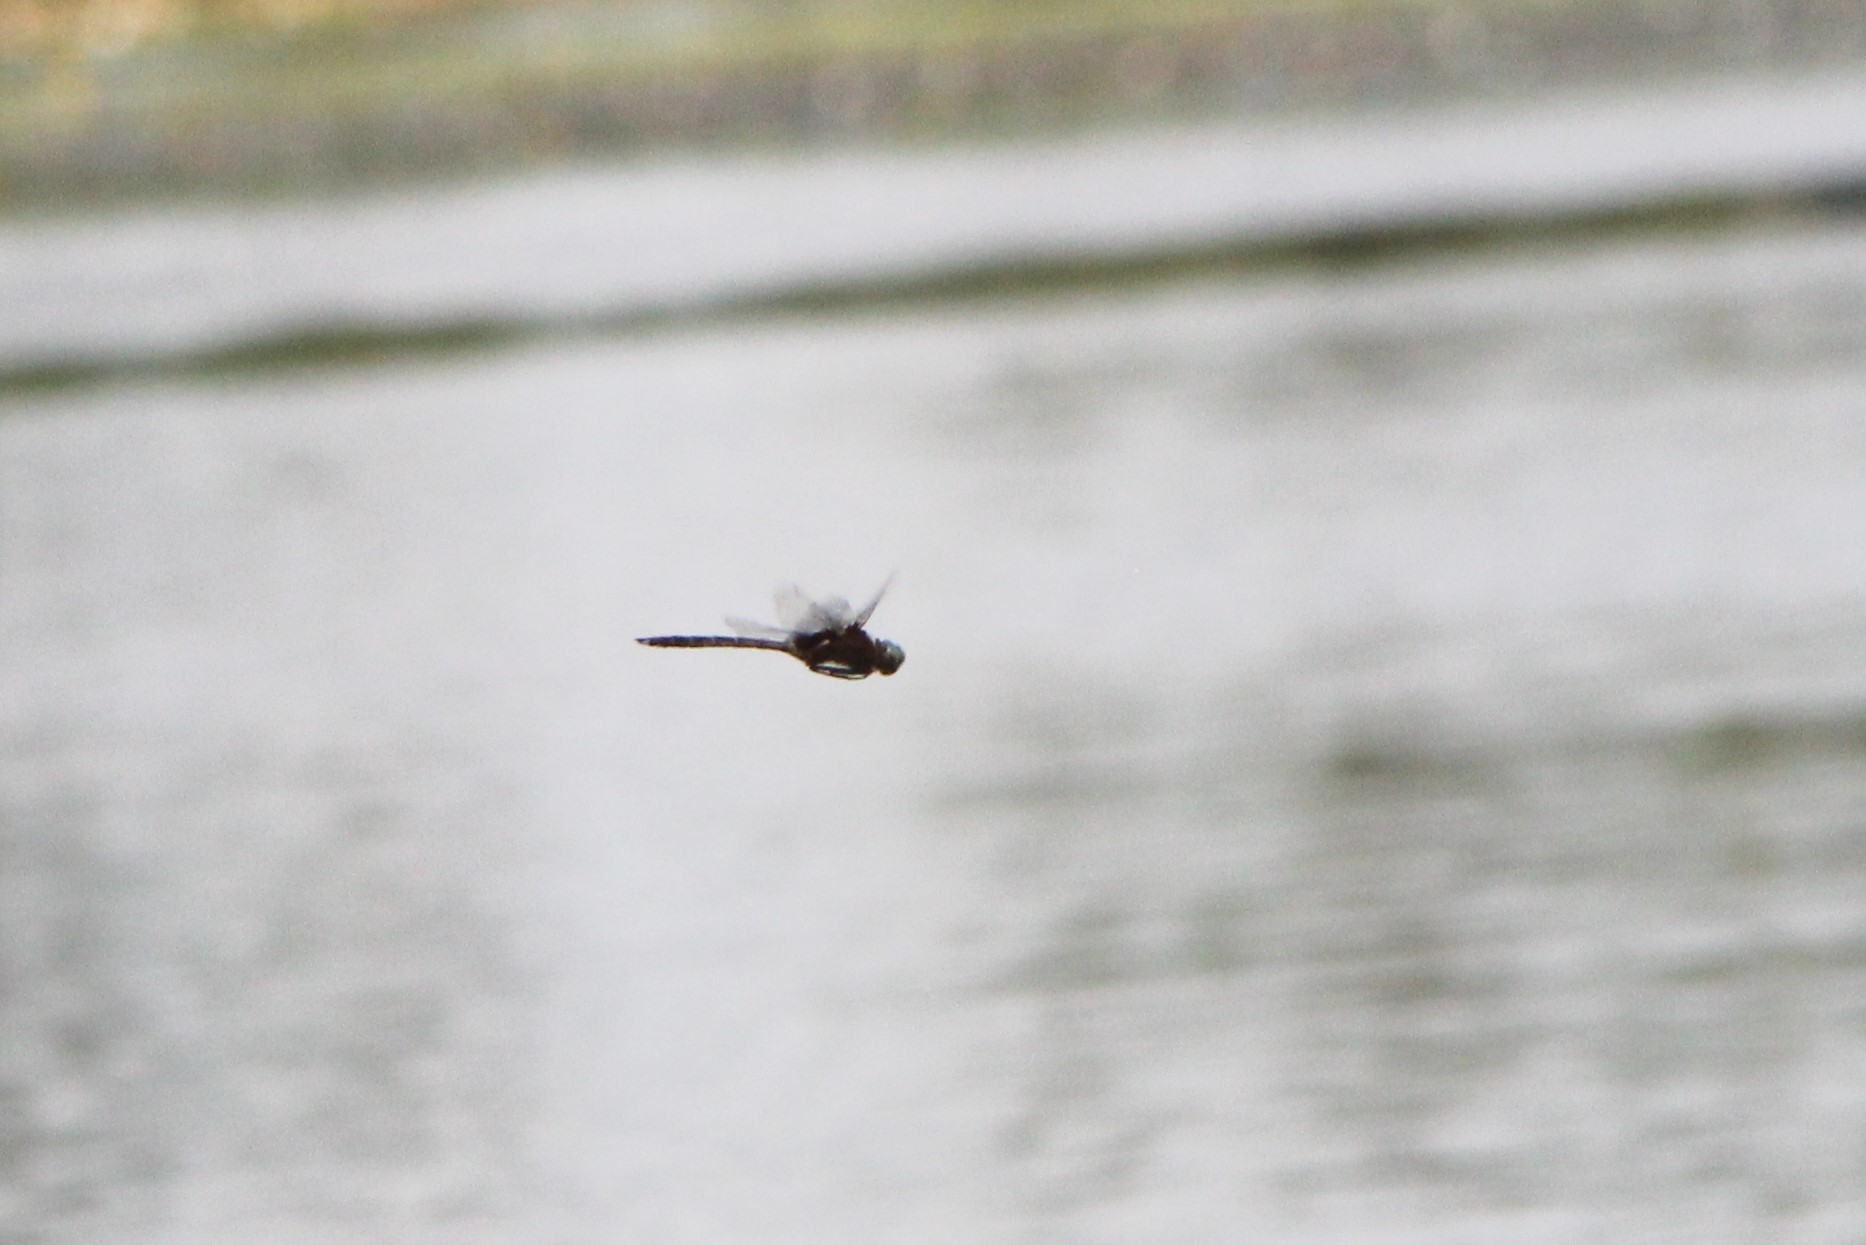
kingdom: Animalia
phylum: Arthropoda
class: Insecta
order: Odonata
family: Corduliidae
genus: Epitheca
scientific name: Epitheca princeps
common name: Prince baskettail
